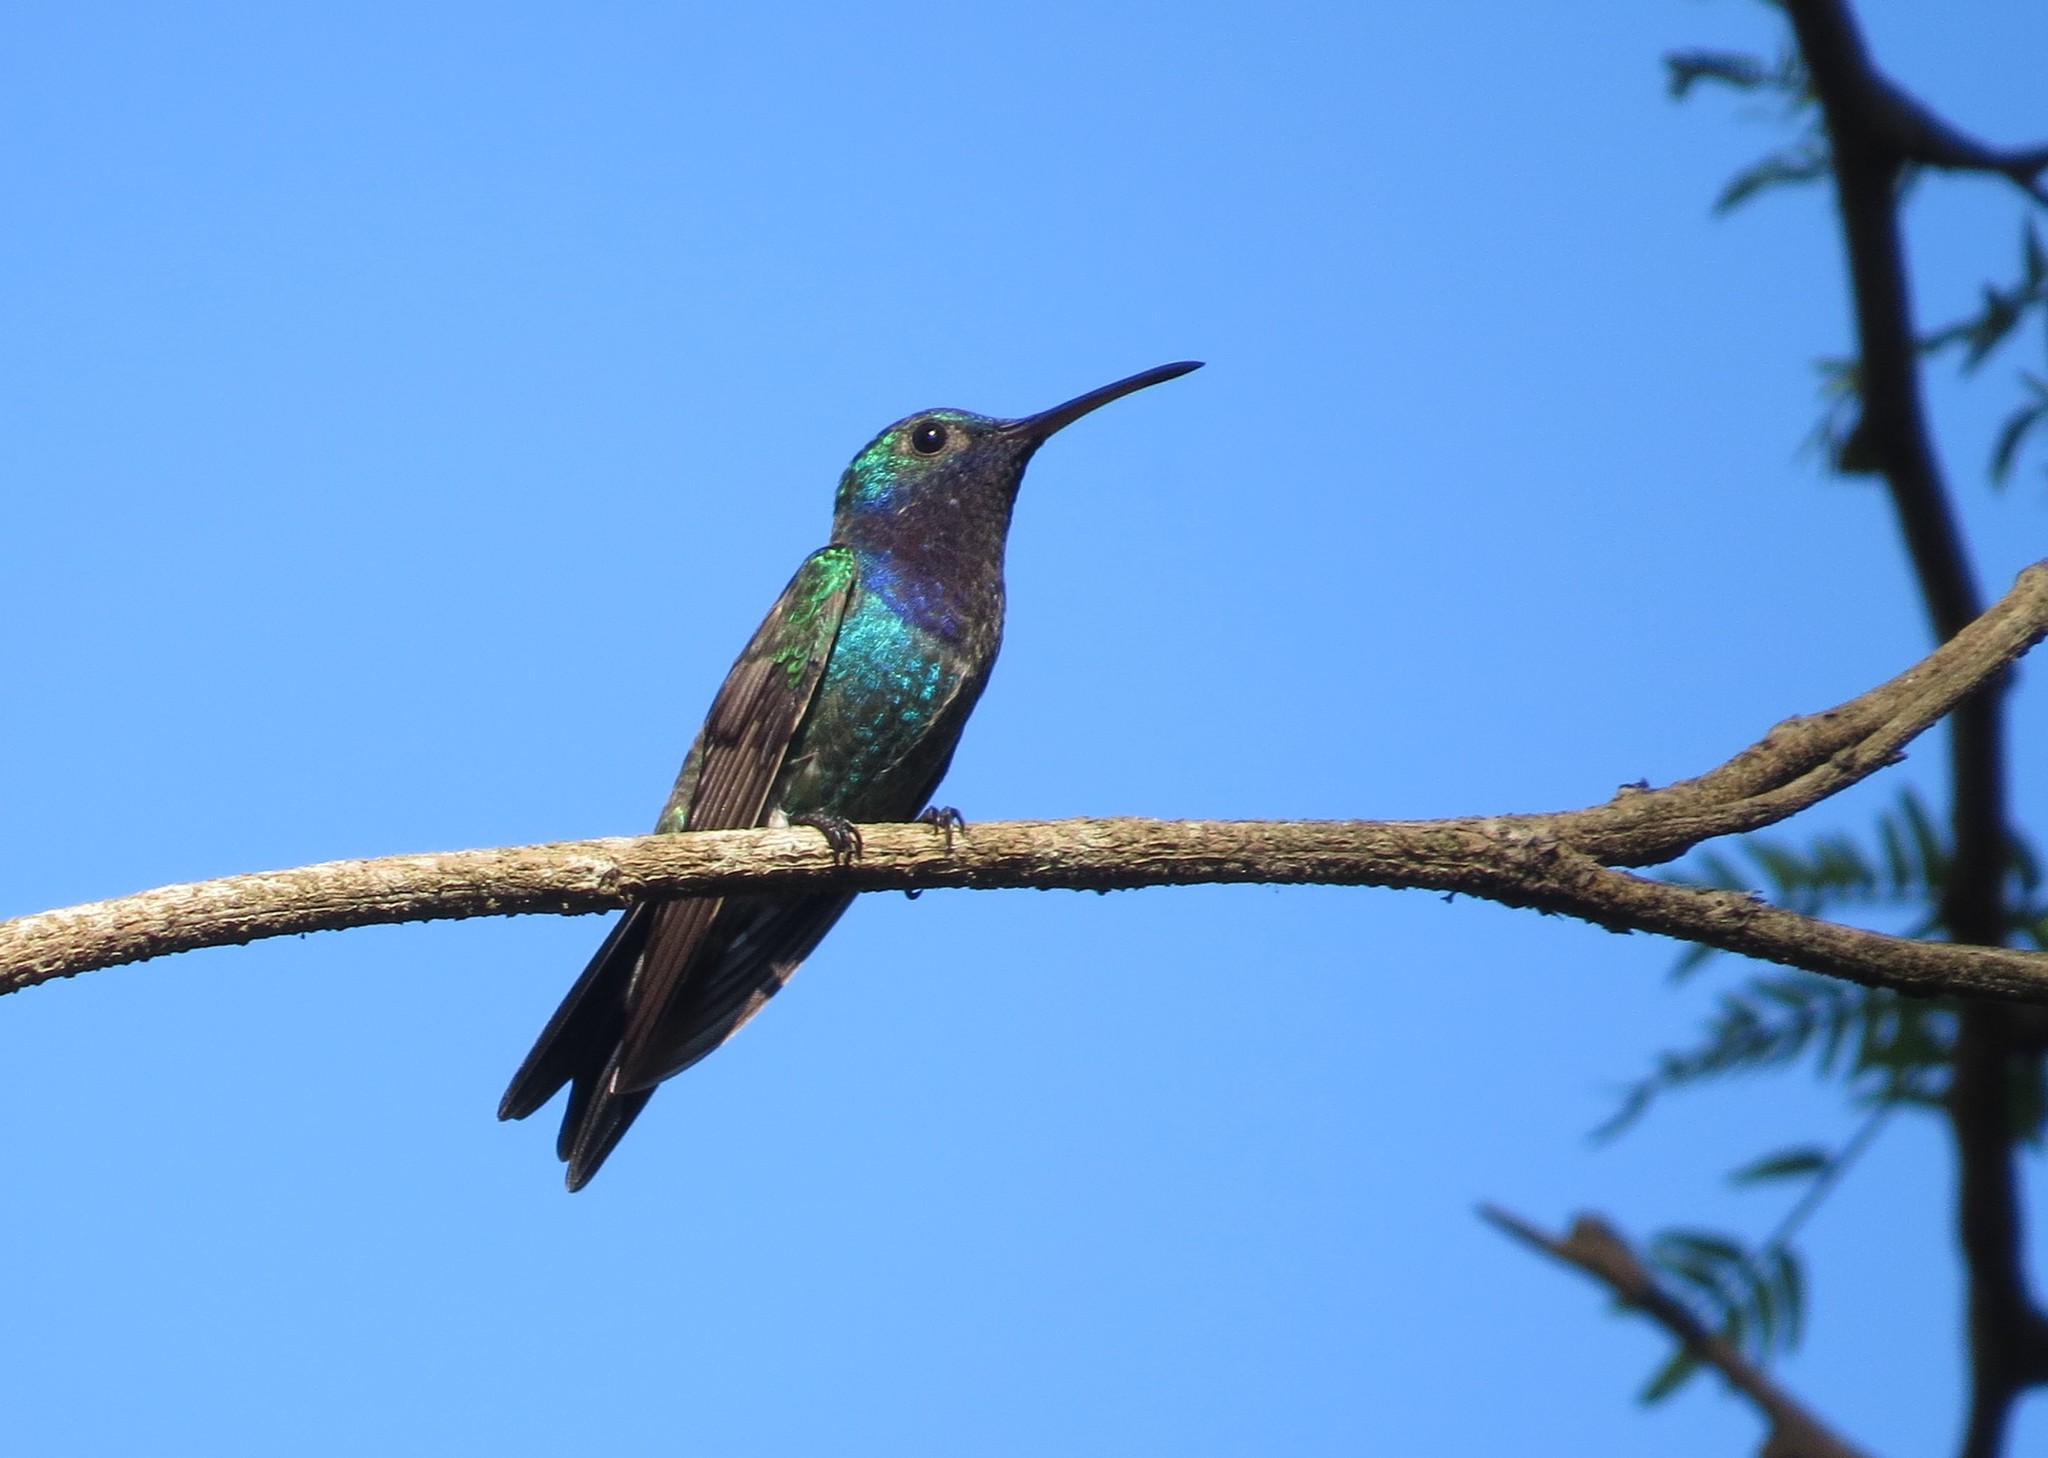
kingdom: Animalia
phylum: Chordata
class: Aves
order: Apodiformes
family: Trochilidae
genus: Chrysuronia
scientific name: Chrysuronia coeruleogularis
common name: Sapphire-throated hummingbird
